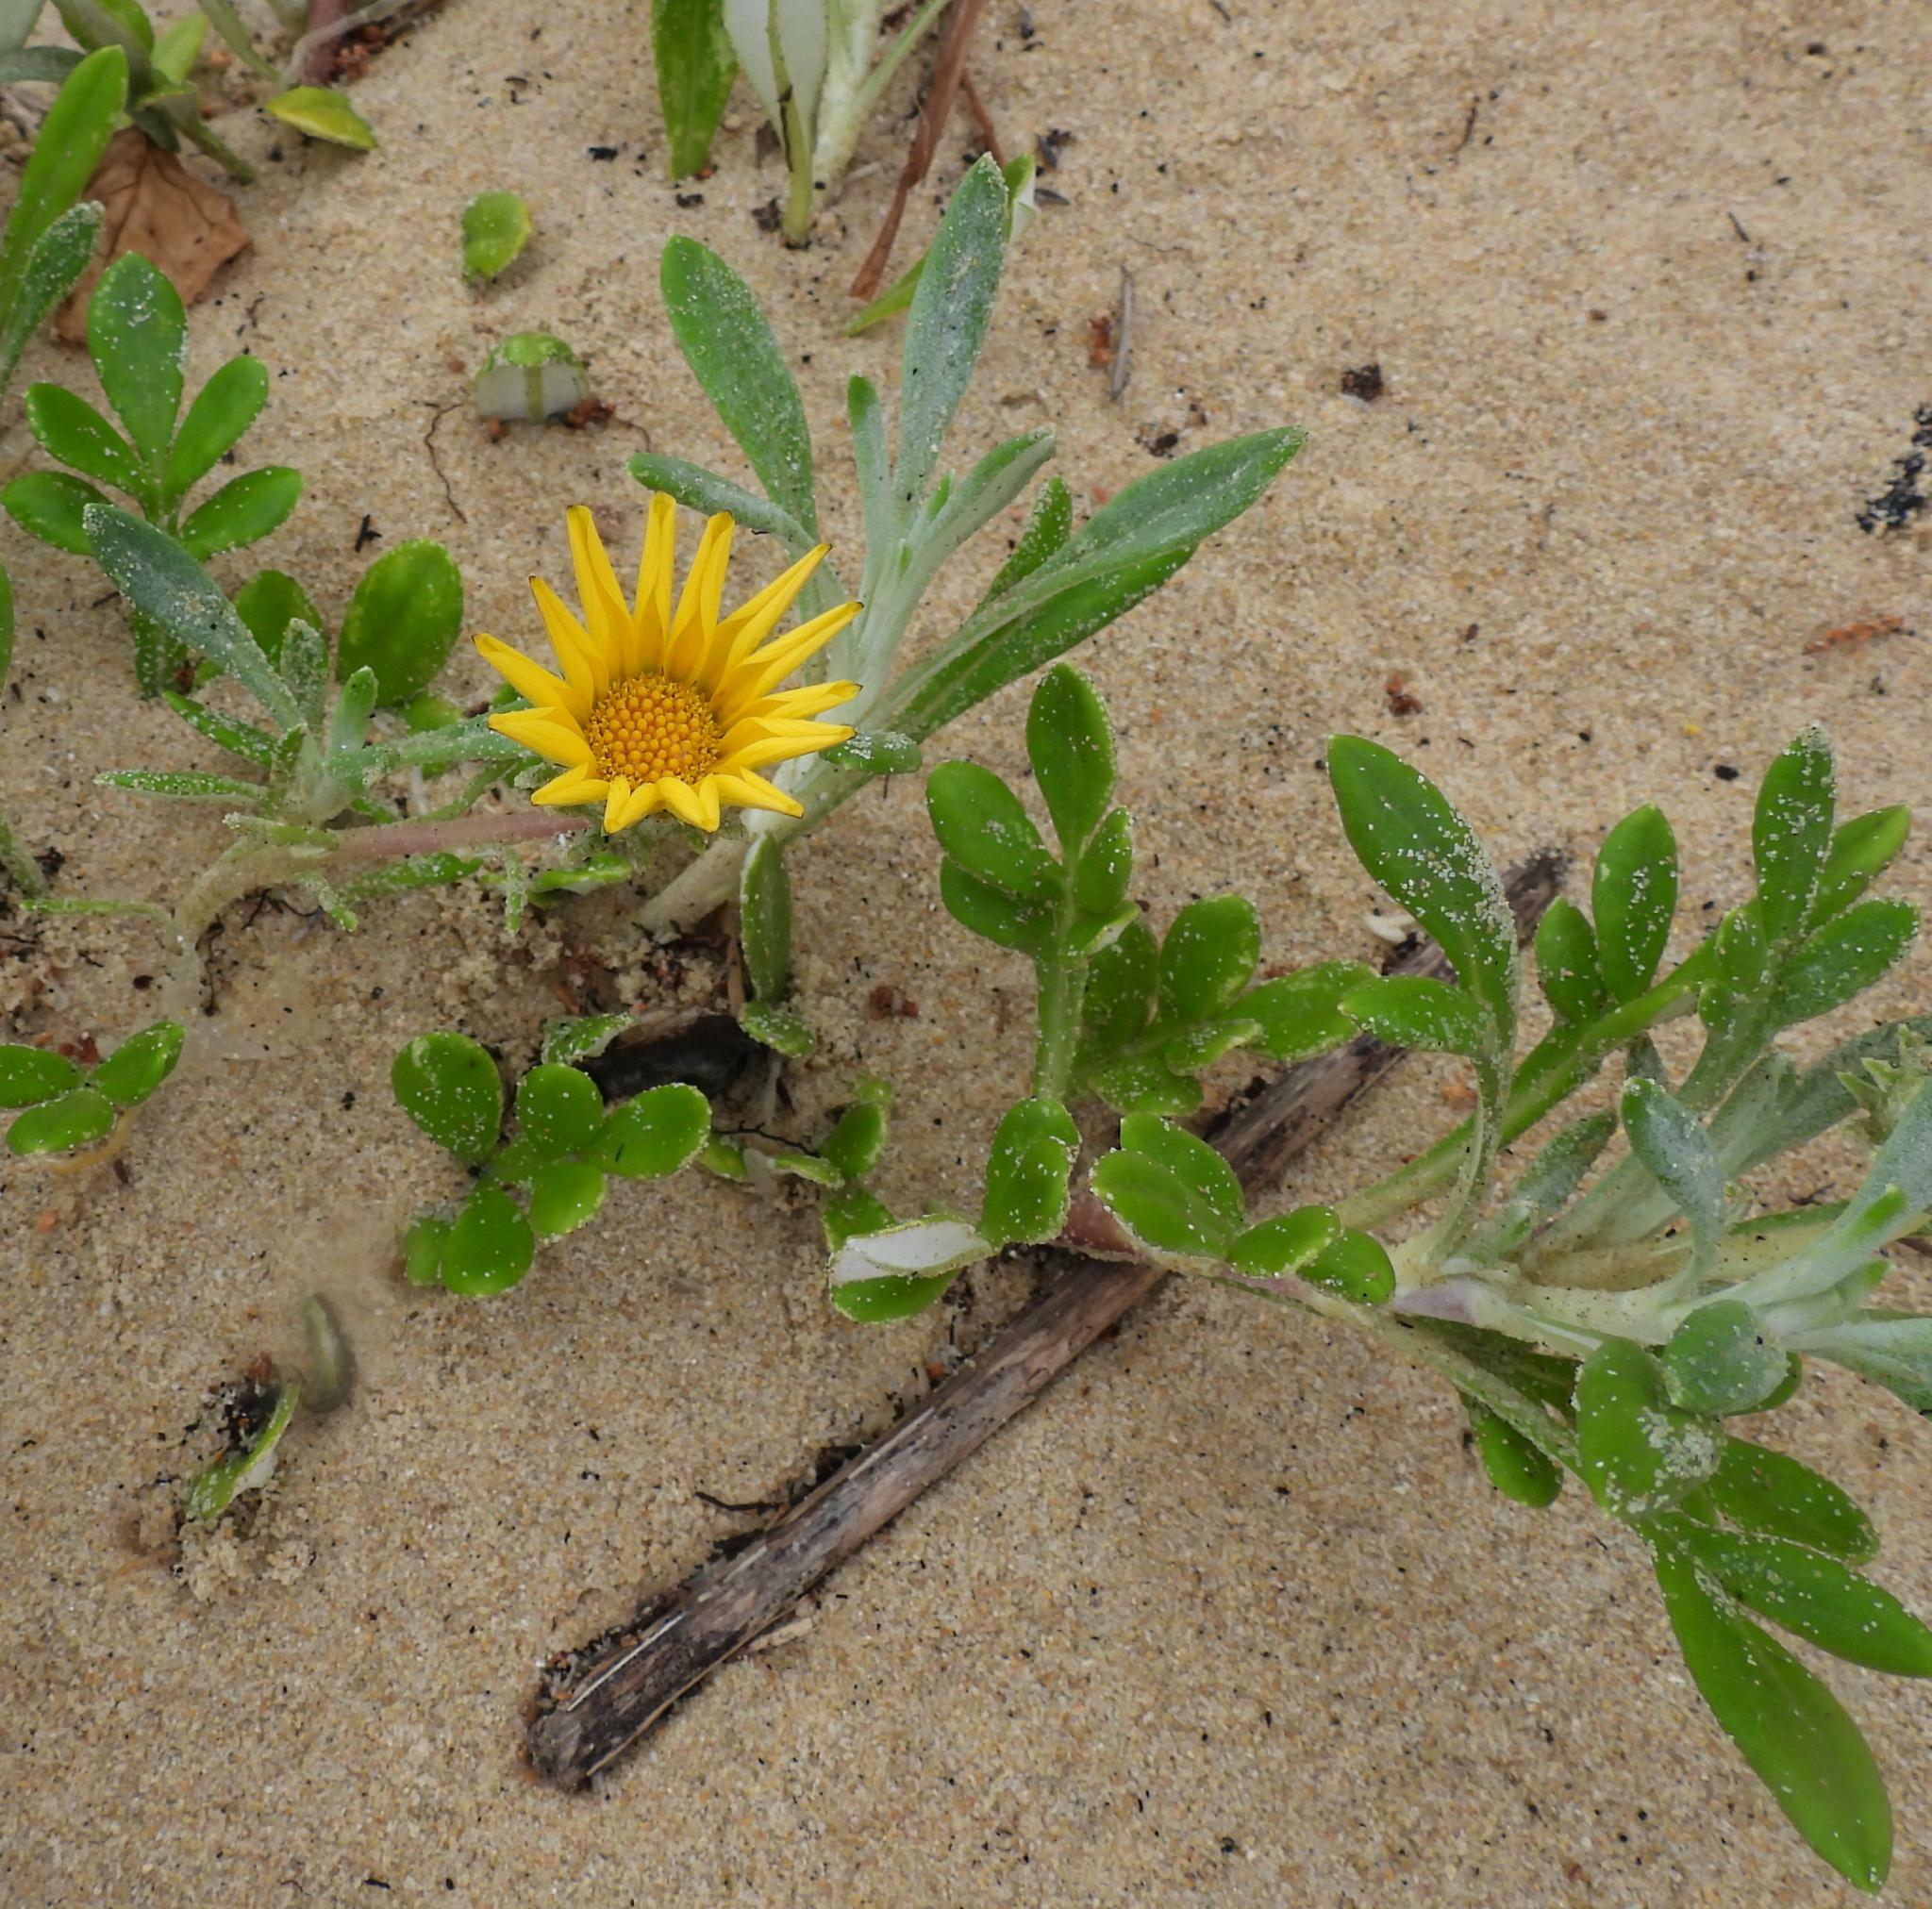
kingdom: Plantae
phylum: Tracheophyta
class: Magnoliopsida
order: Asterales
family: Asteraceae
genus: Gazania
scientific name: Gazania rigens
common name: Treasureflower
